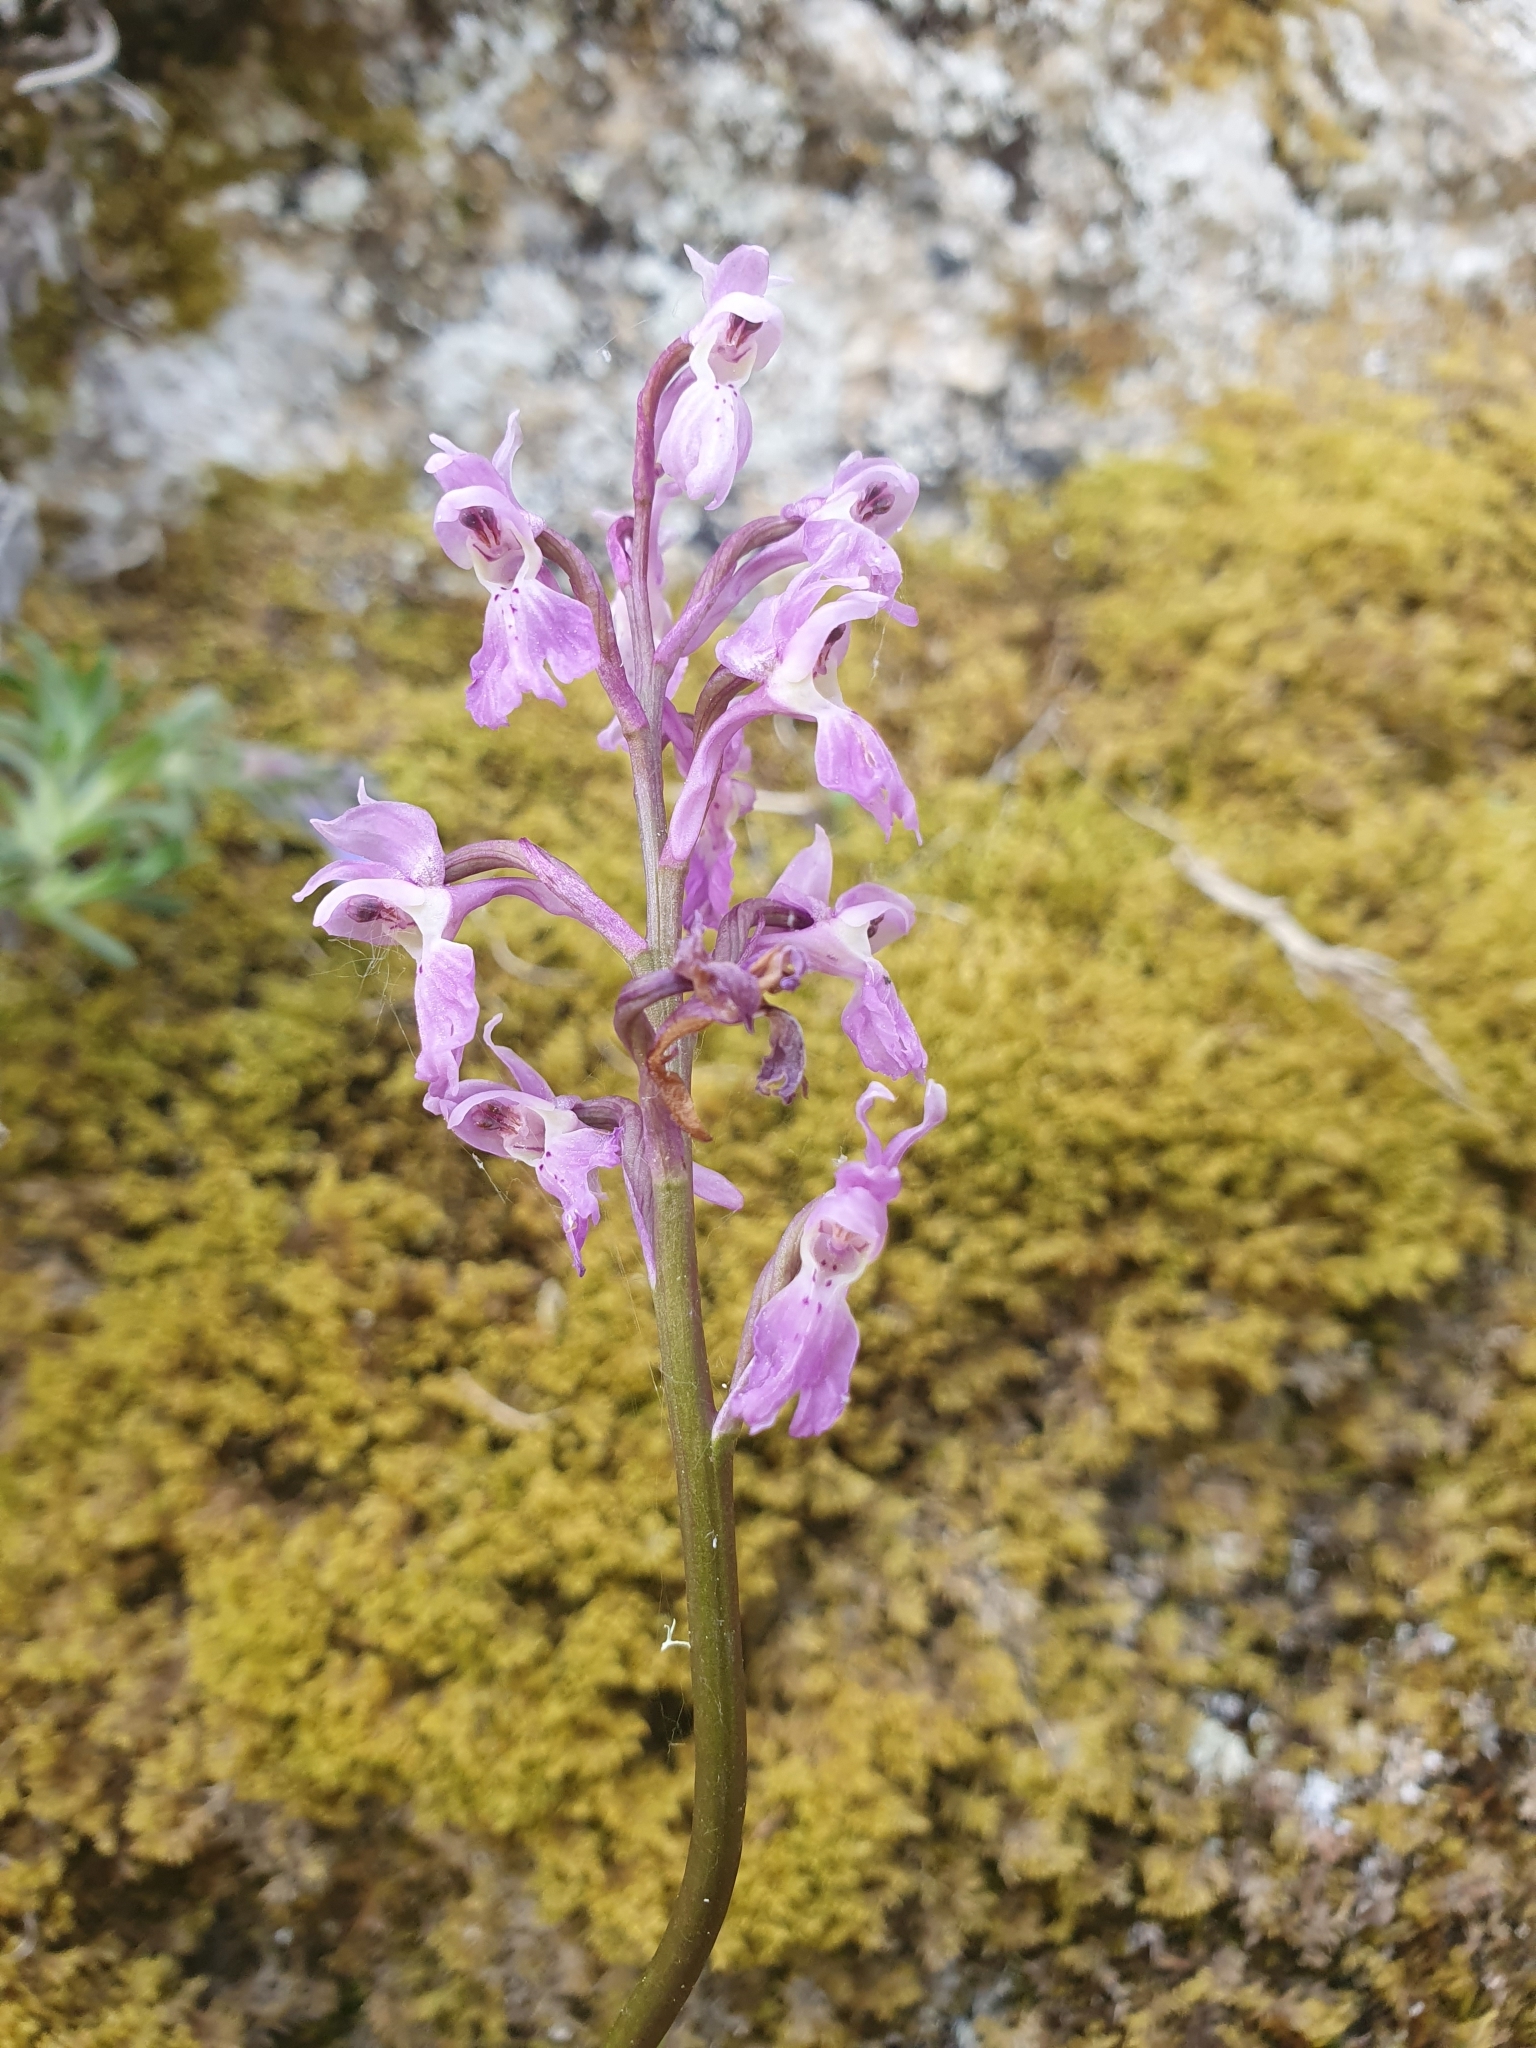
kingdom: Plantae
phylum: Tracheophyta
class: Liliopsida
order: Asparagales
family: Orchidaceae
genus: Orchis
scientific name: Orchis mascula
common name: Early-purple orchid
